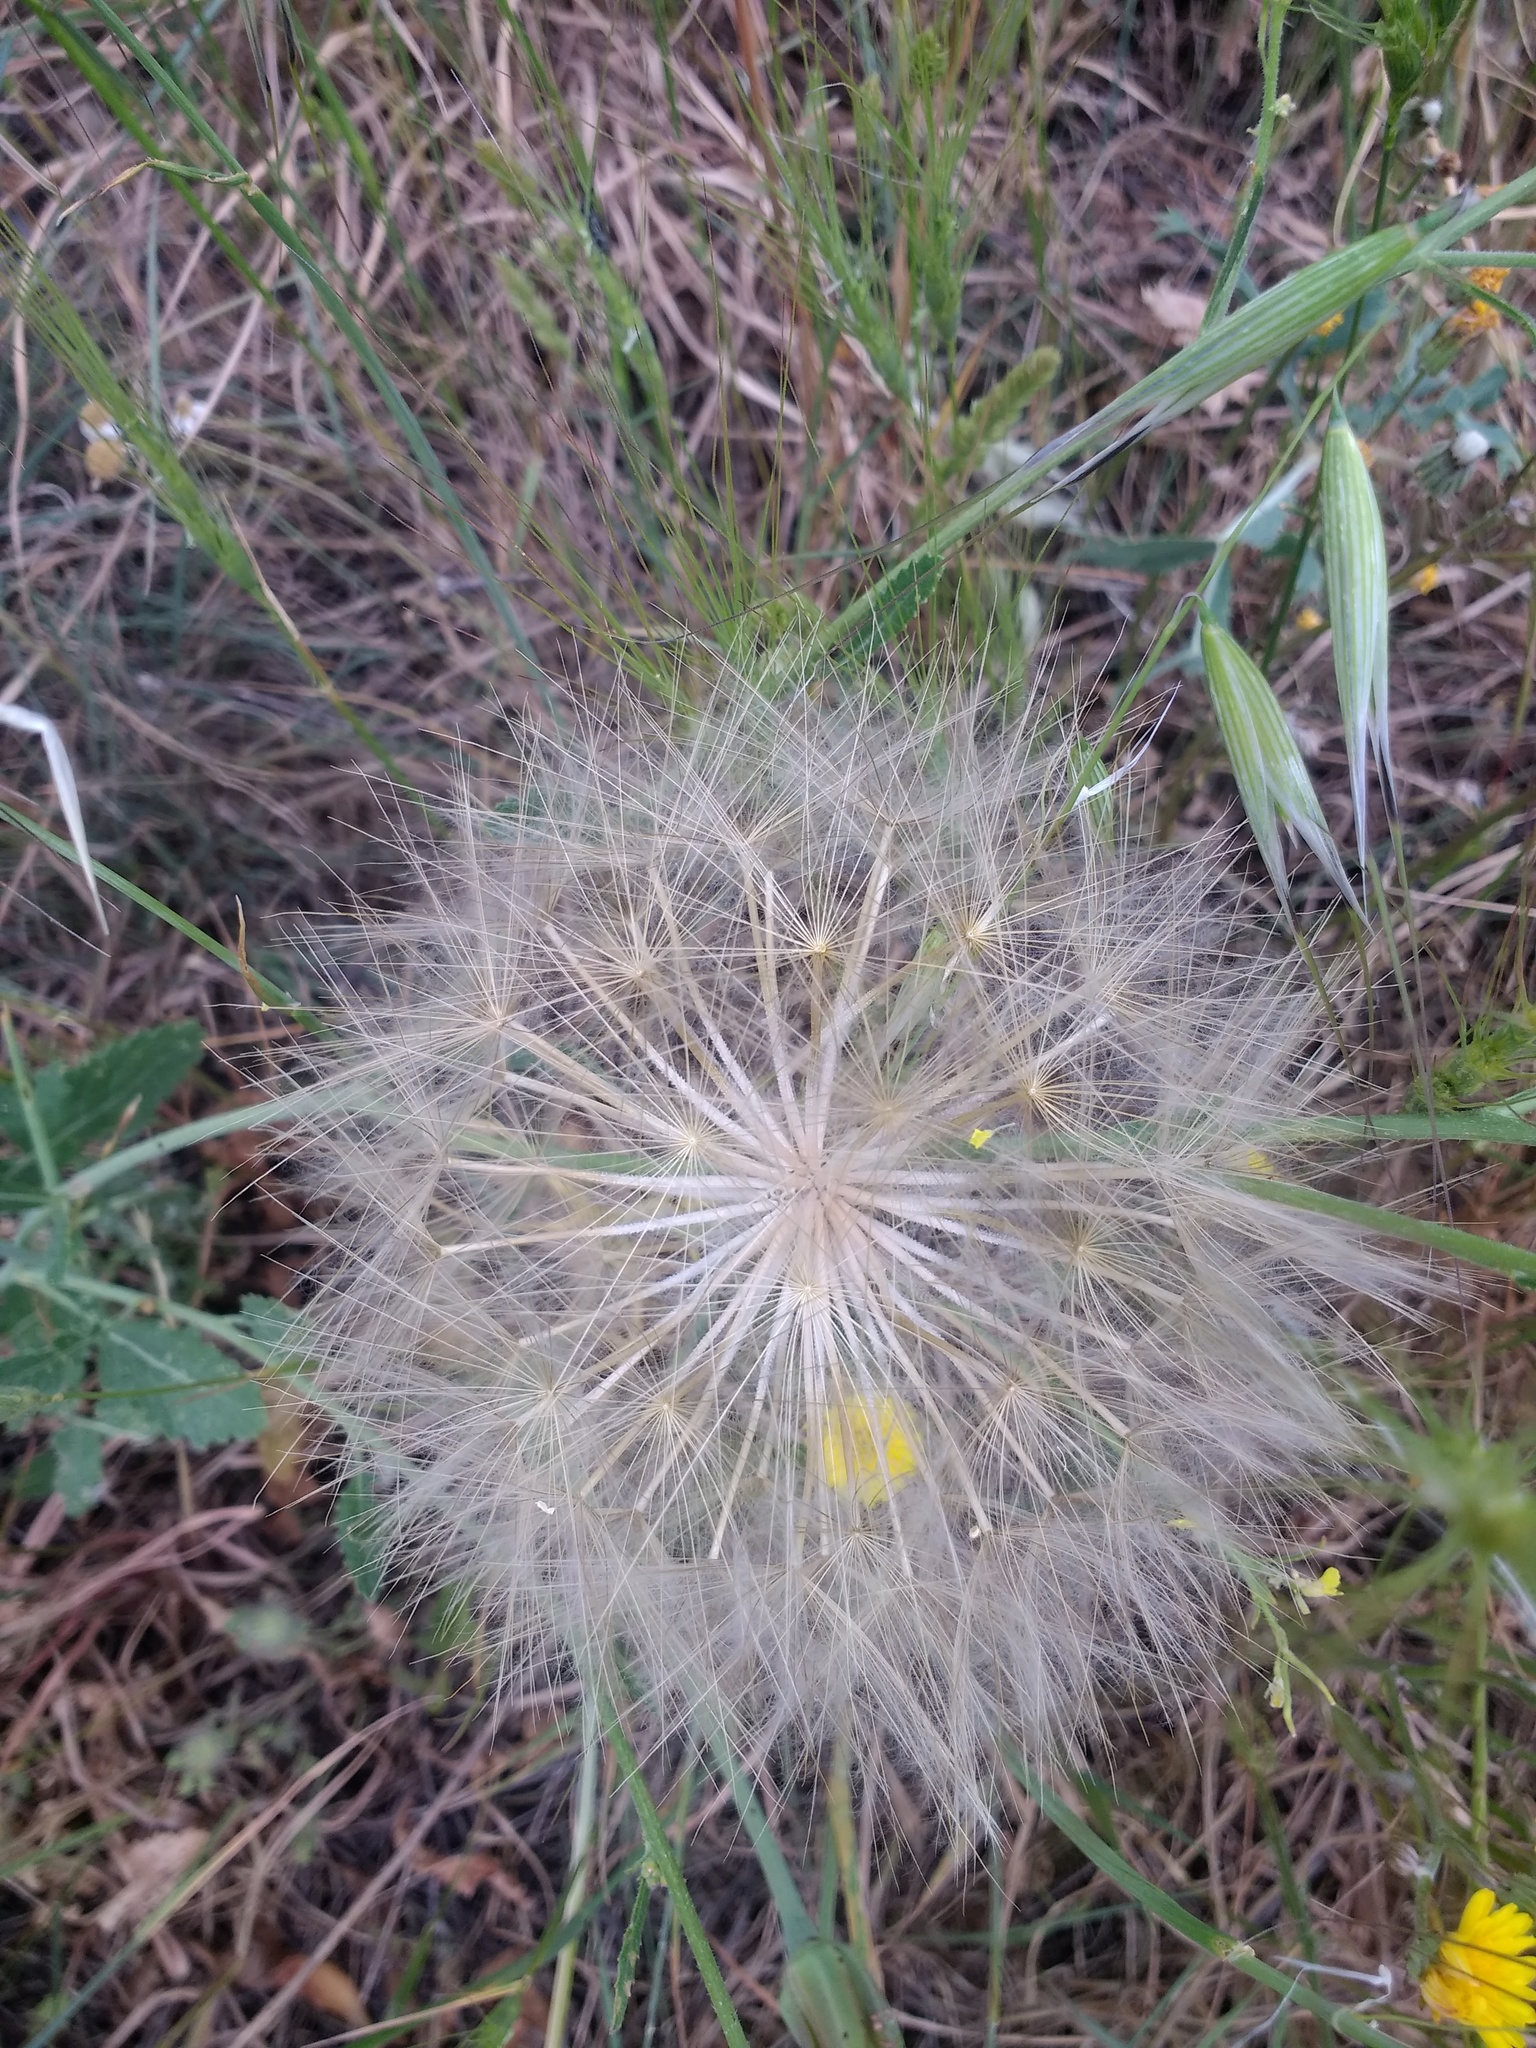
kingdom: Plantae
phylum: Tracheophyta
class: Magnoliopsida
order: Asterales
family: Asteraceae
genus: Tragopogon
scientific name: Tragopogon porrifolius
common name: Salsify
